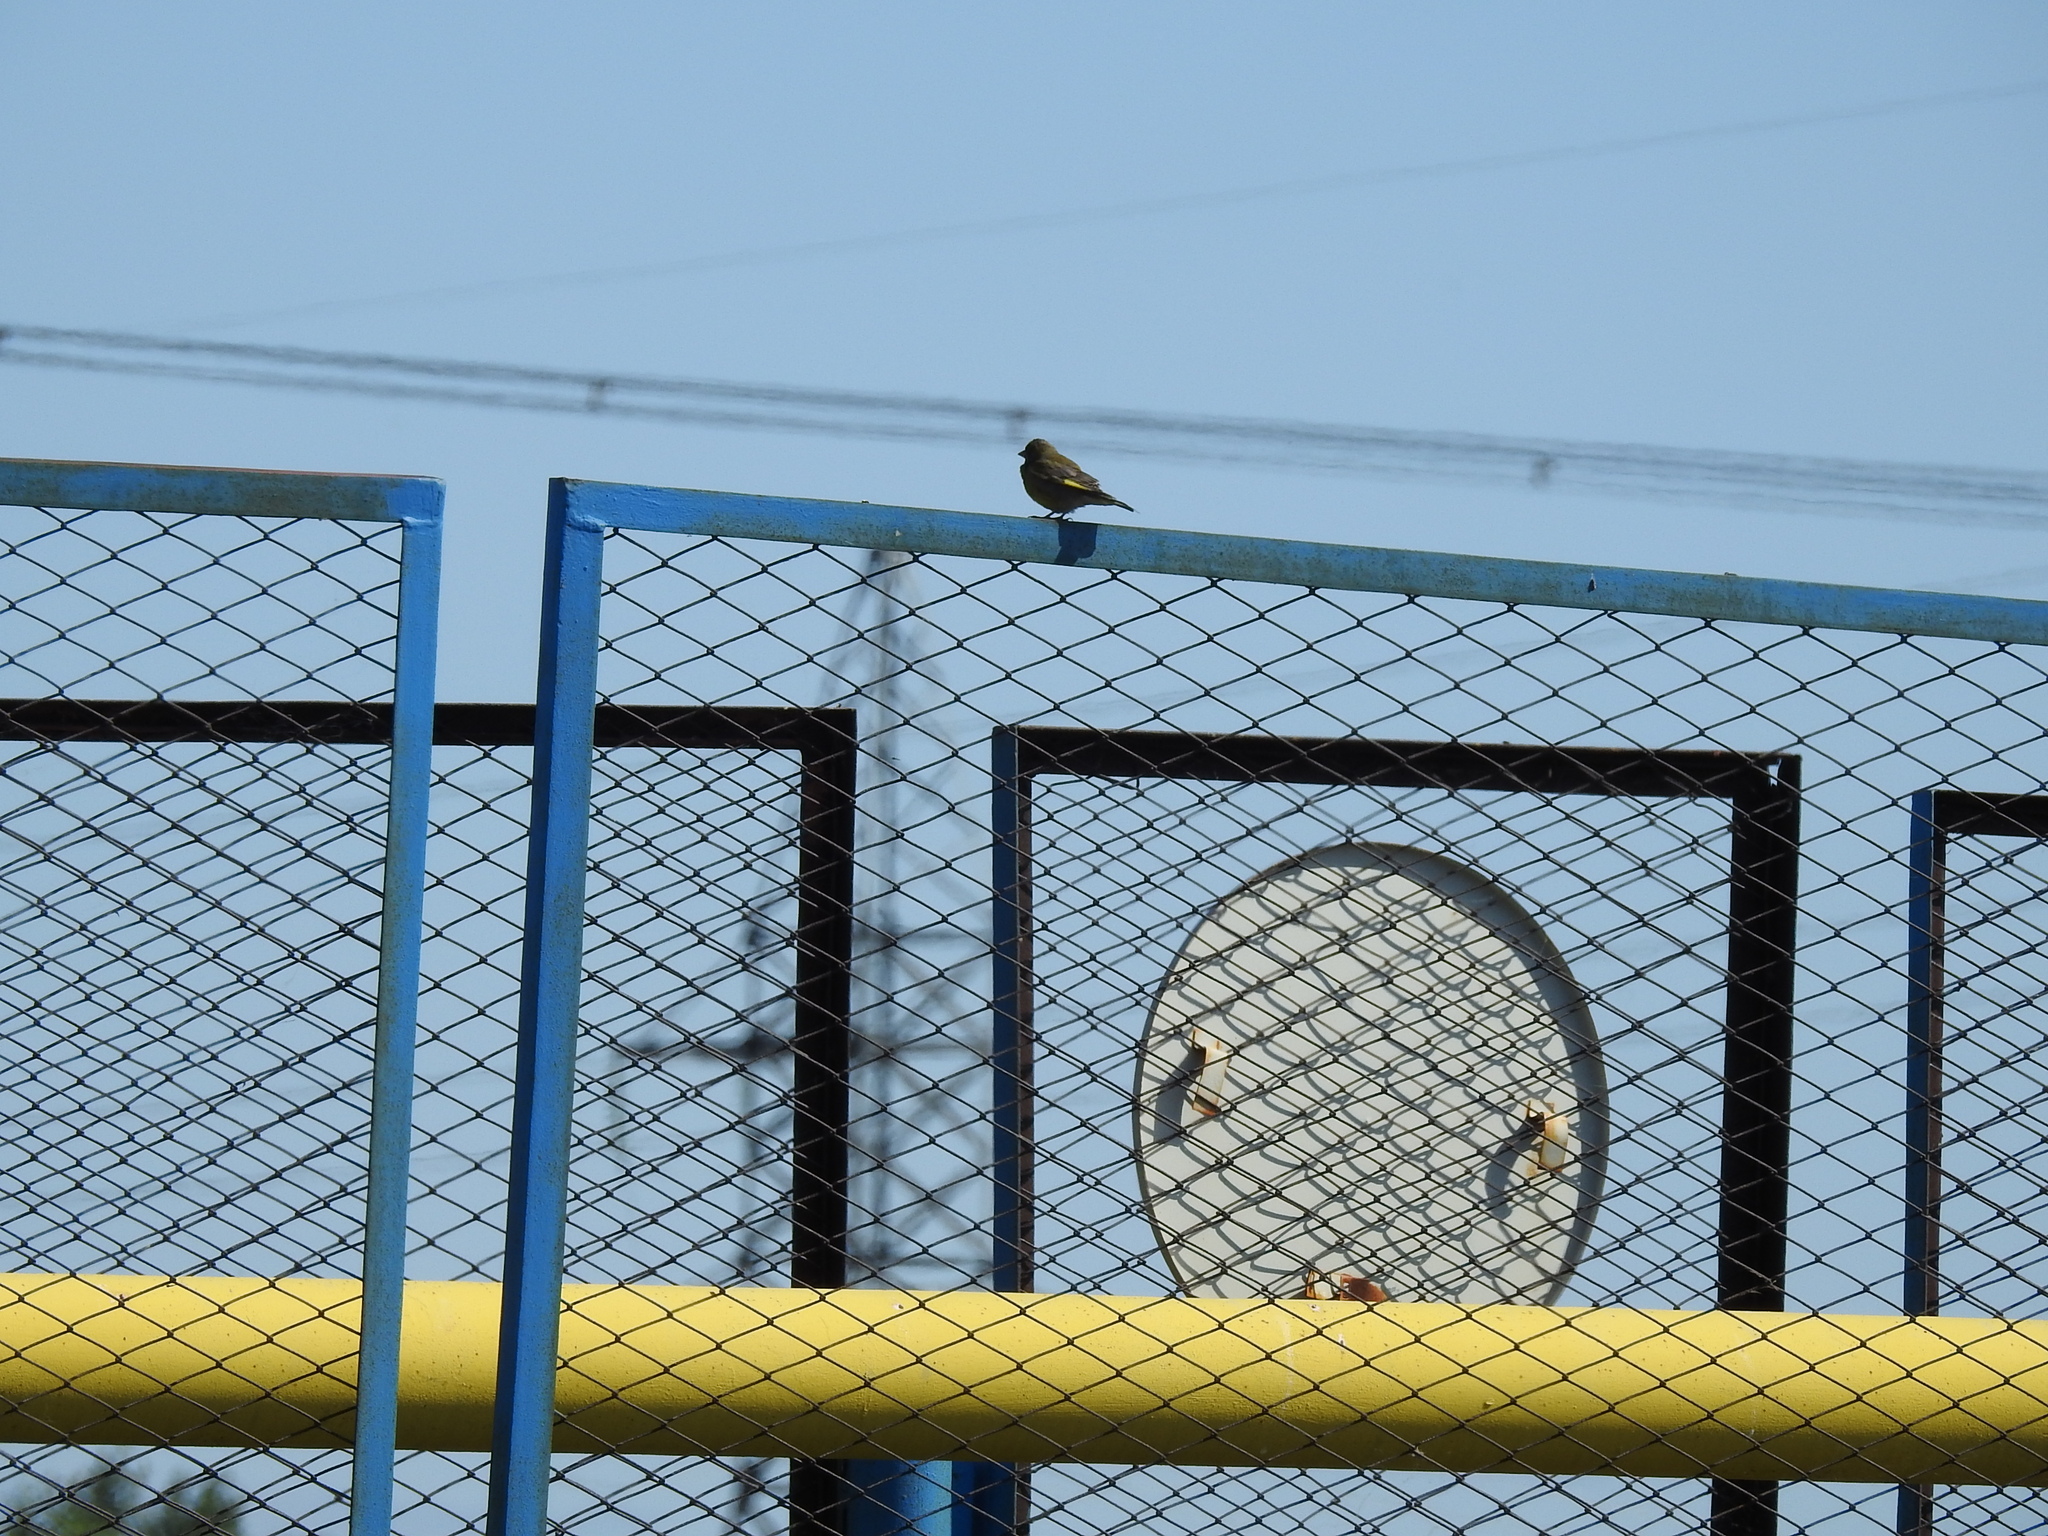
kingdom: Plantae
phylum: Tracheophyta
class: Liliopsida
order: Poales
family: Poaceae
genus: Chloris
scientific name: Chloris chloris
